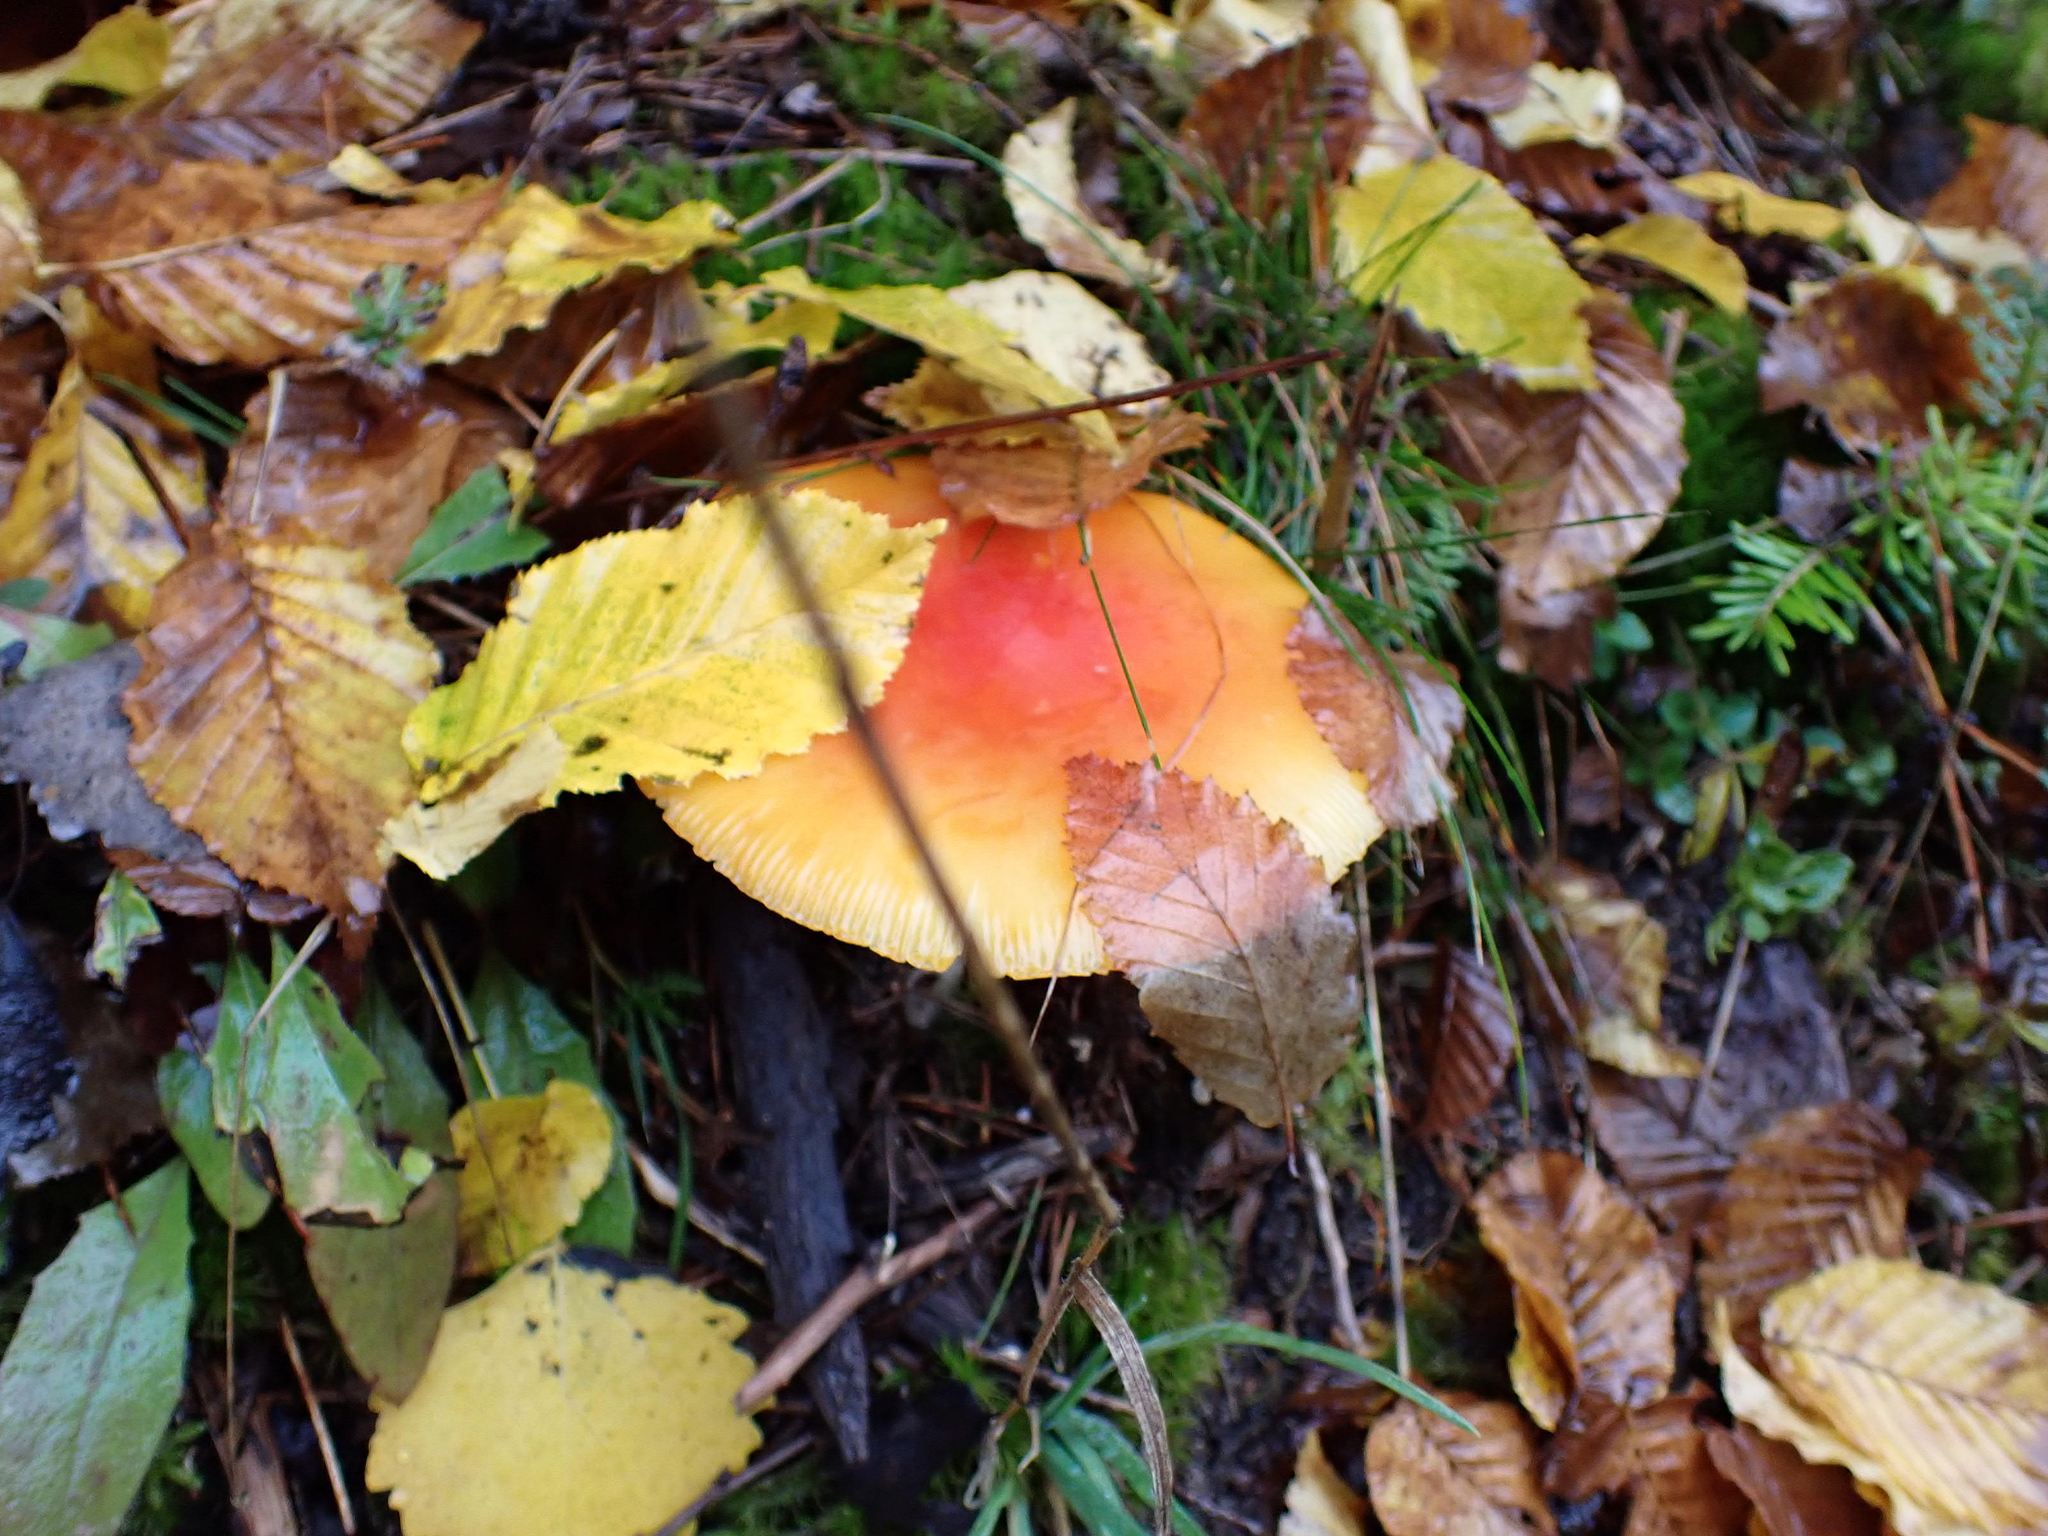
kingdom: Fungi
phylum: Basidiomycota
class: Agaricomycetes
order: Agaricales
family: Amanitaceae
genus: Amanita
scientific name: Amanita muscaria
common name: Fly agaric
